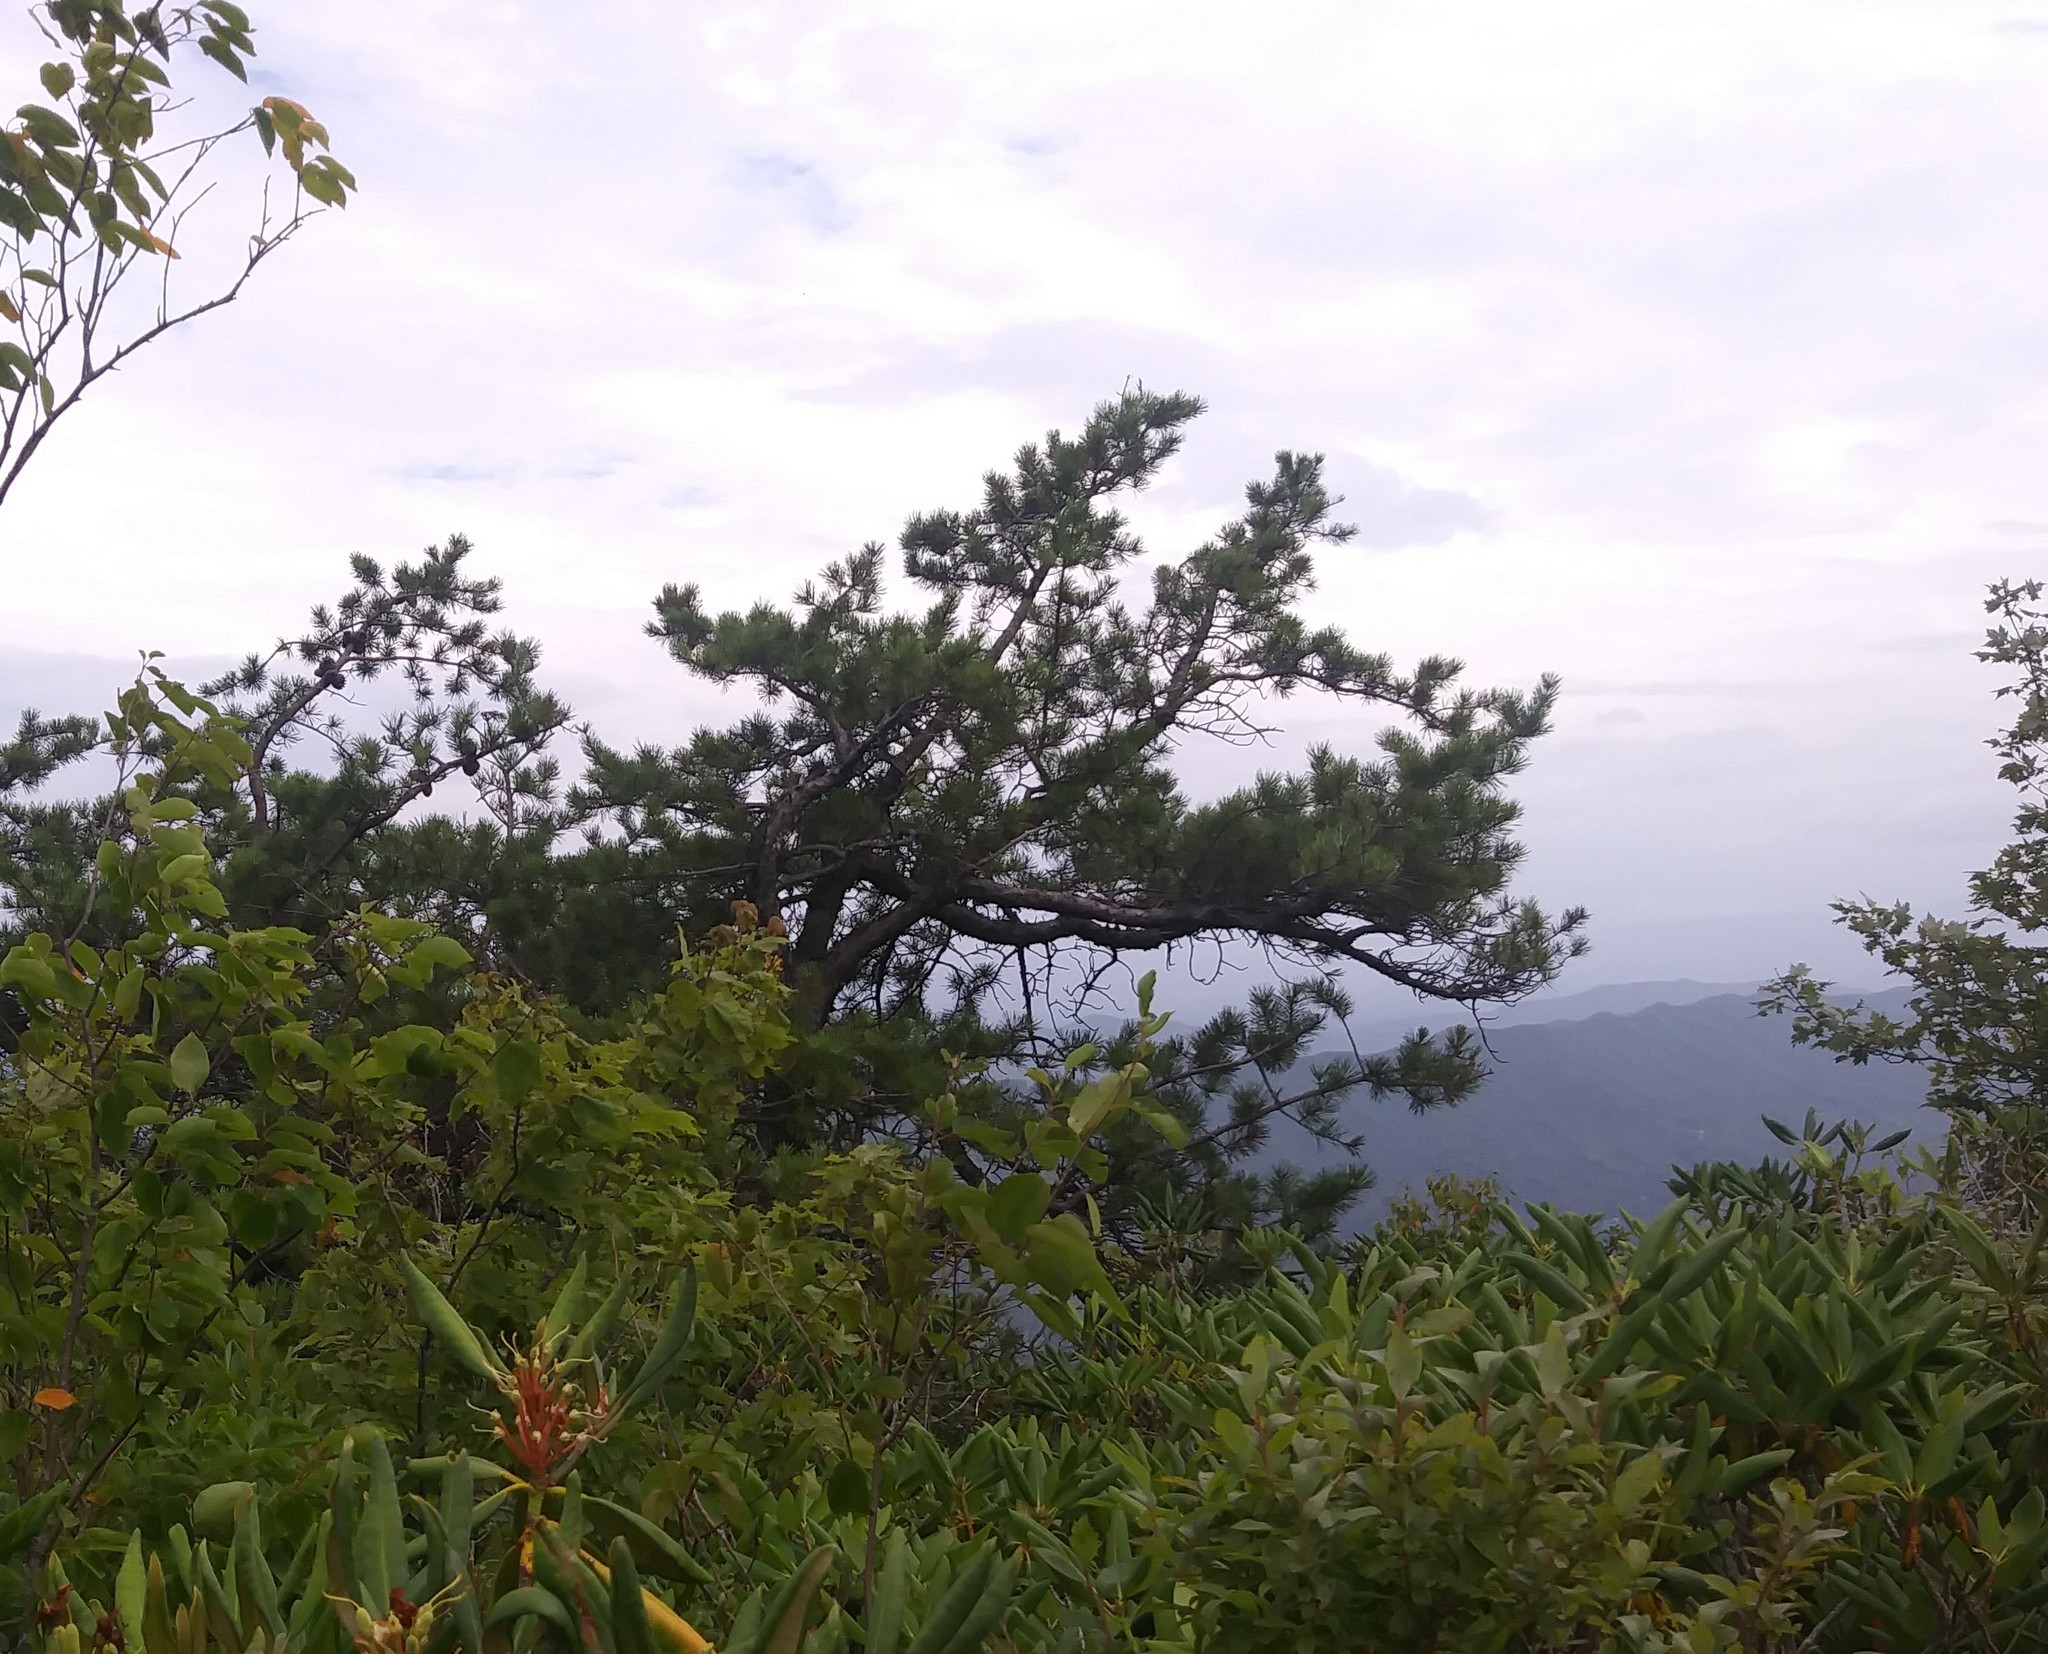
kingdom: Plantae
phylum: Tracheophyta
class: Pinopsida
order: Pinales
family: Pinaceae
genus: Pinus
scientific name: Pinus pungens
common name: Hickory pine
